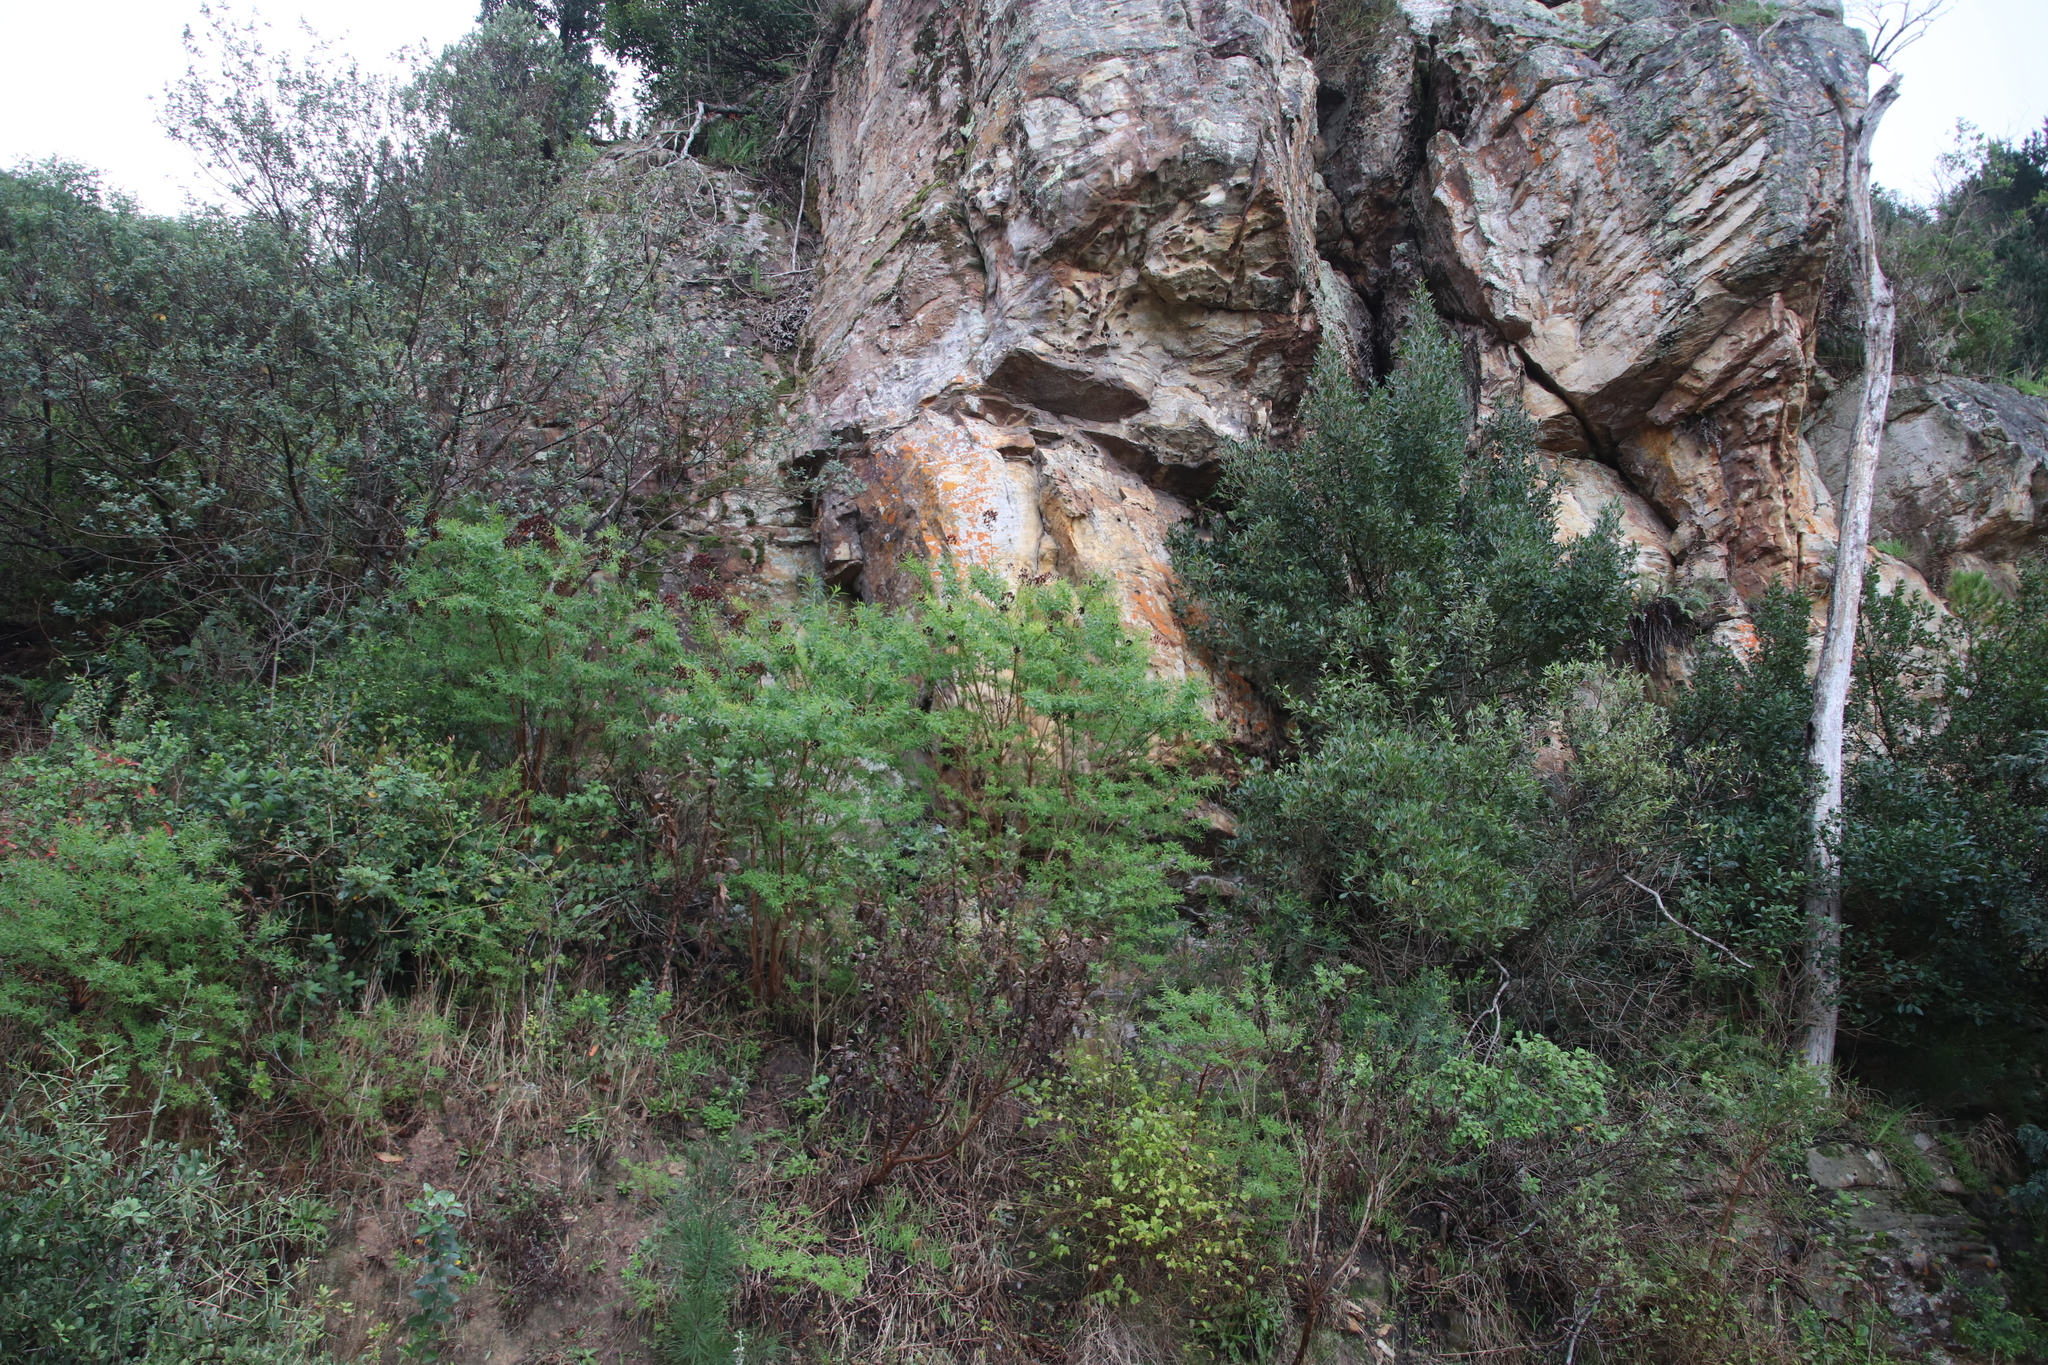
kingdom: Plantae
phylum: Tracheophyta
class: Magnoliopsida
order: Malpighiales
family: Hypericaceae
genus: Hypericum
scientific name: Hypericum canariense
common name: Canary island st. johnswort
